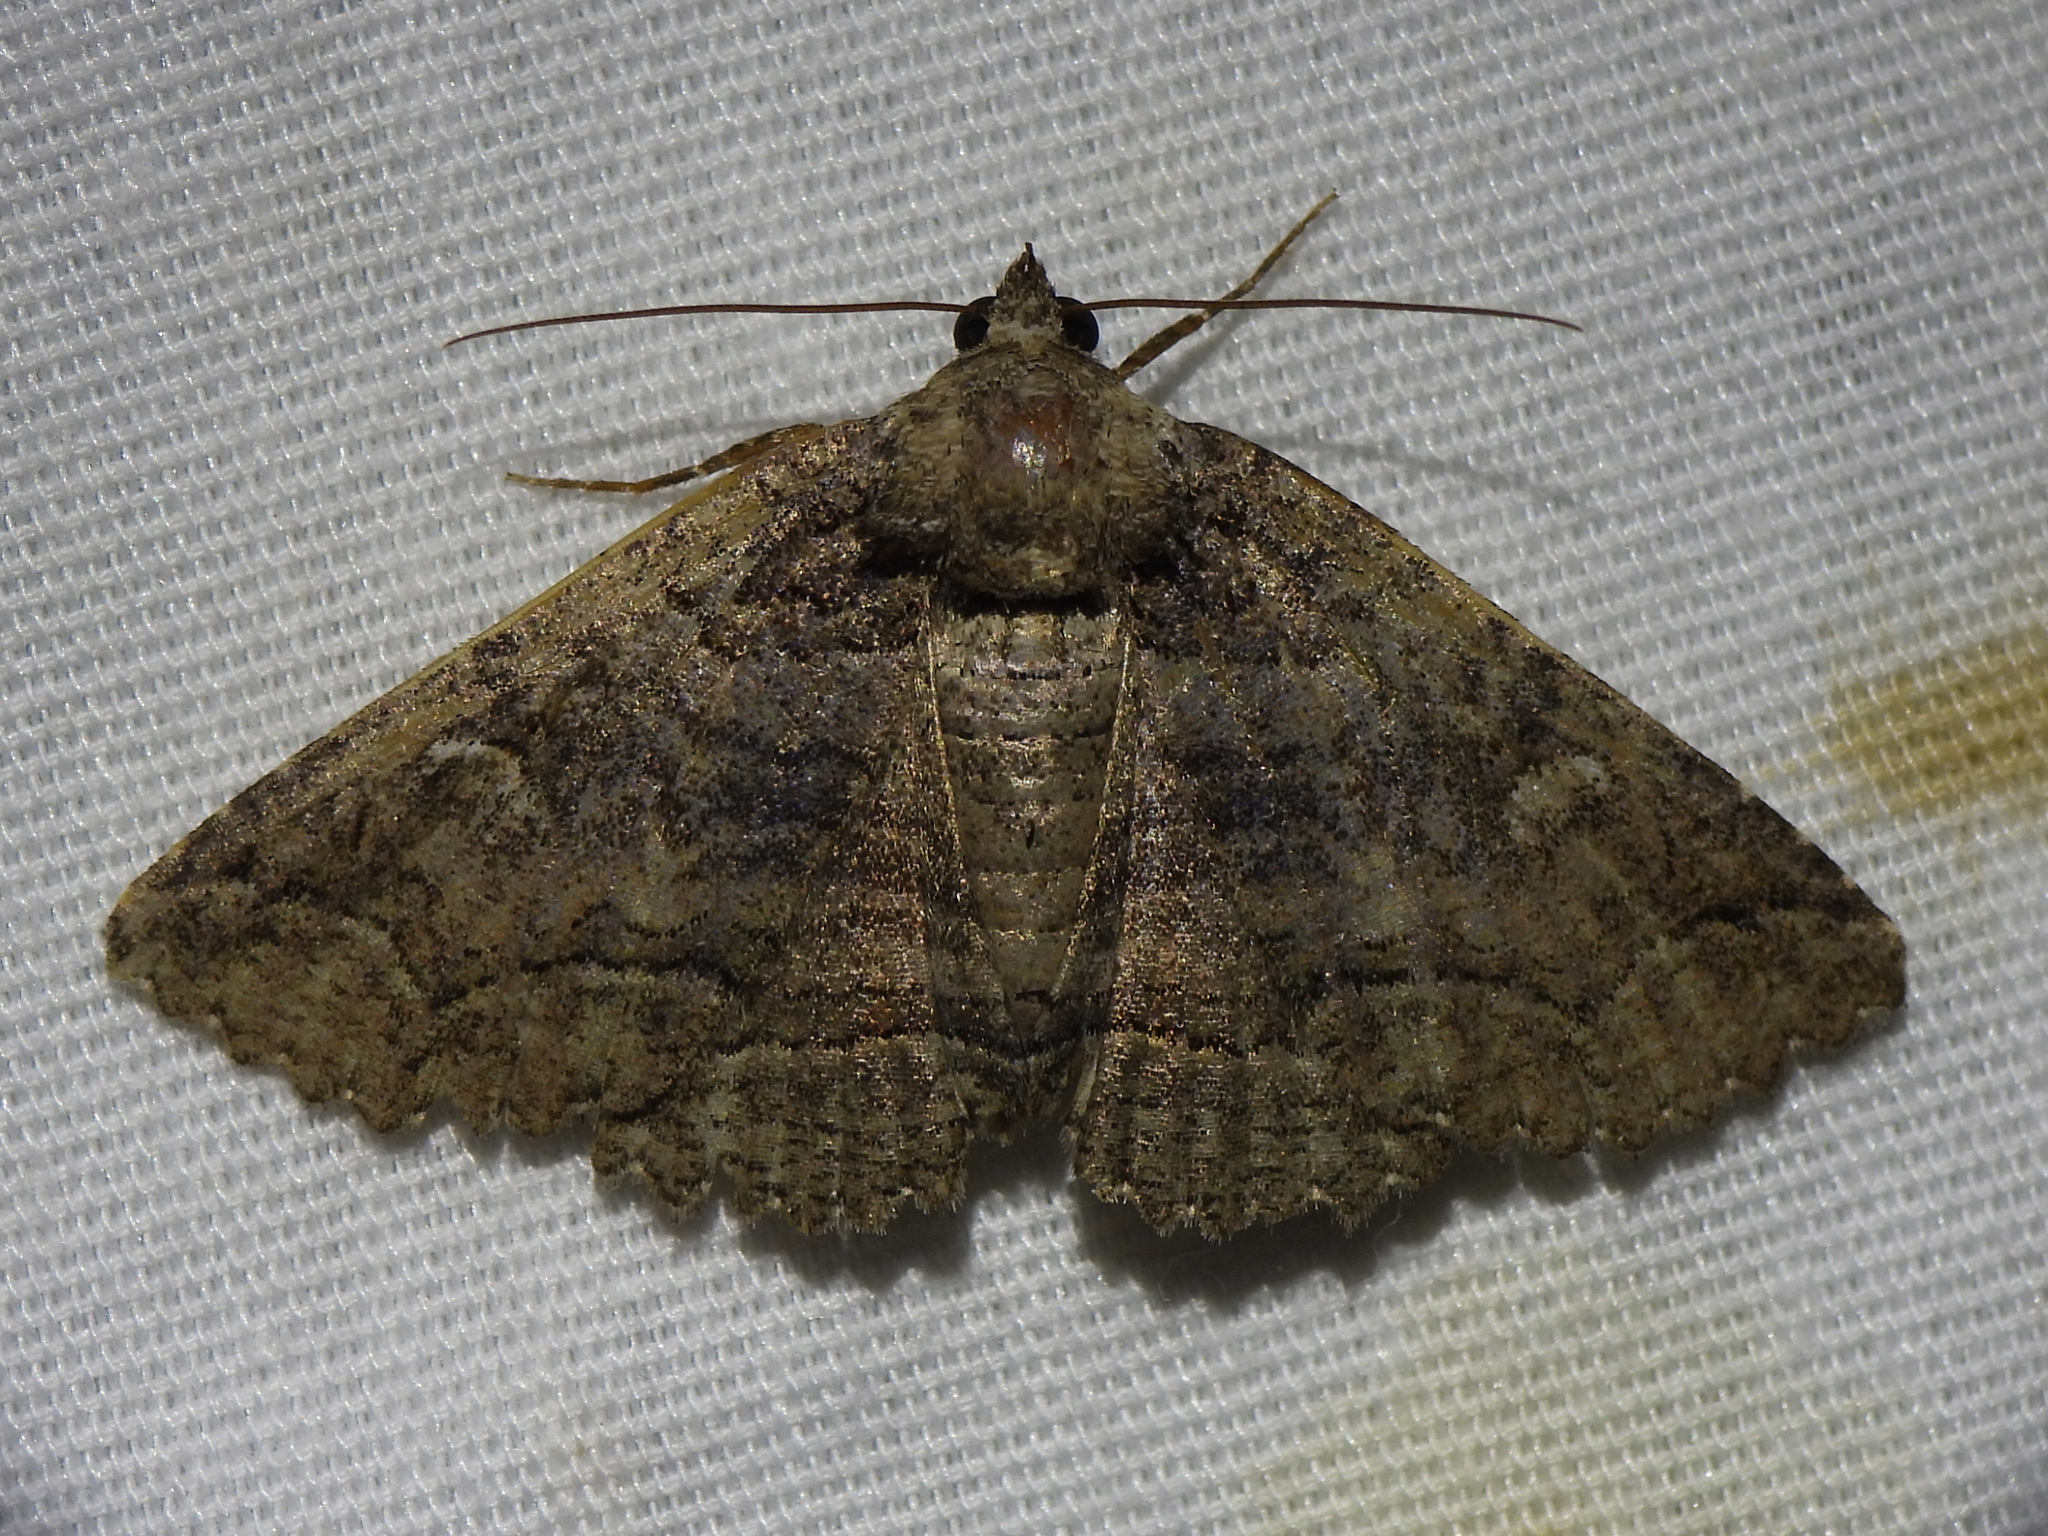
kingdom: Animalia
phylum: Arthropoda
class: Insecta
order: Lepidoptera
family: Erebidae
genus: Zale
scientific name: Zale edusina
